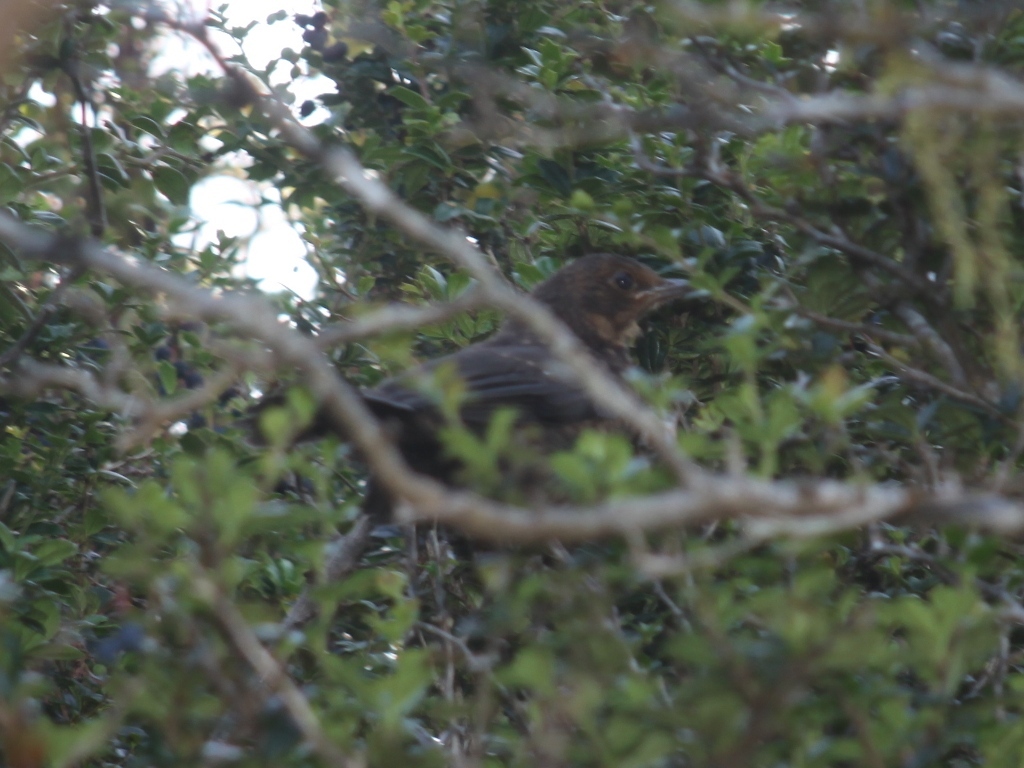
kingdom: Animalia
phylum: Chordata
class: Aves
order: Passeriformes
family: Turdidae
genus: Turdus
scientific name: Turdus merula
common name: Common blackbird
